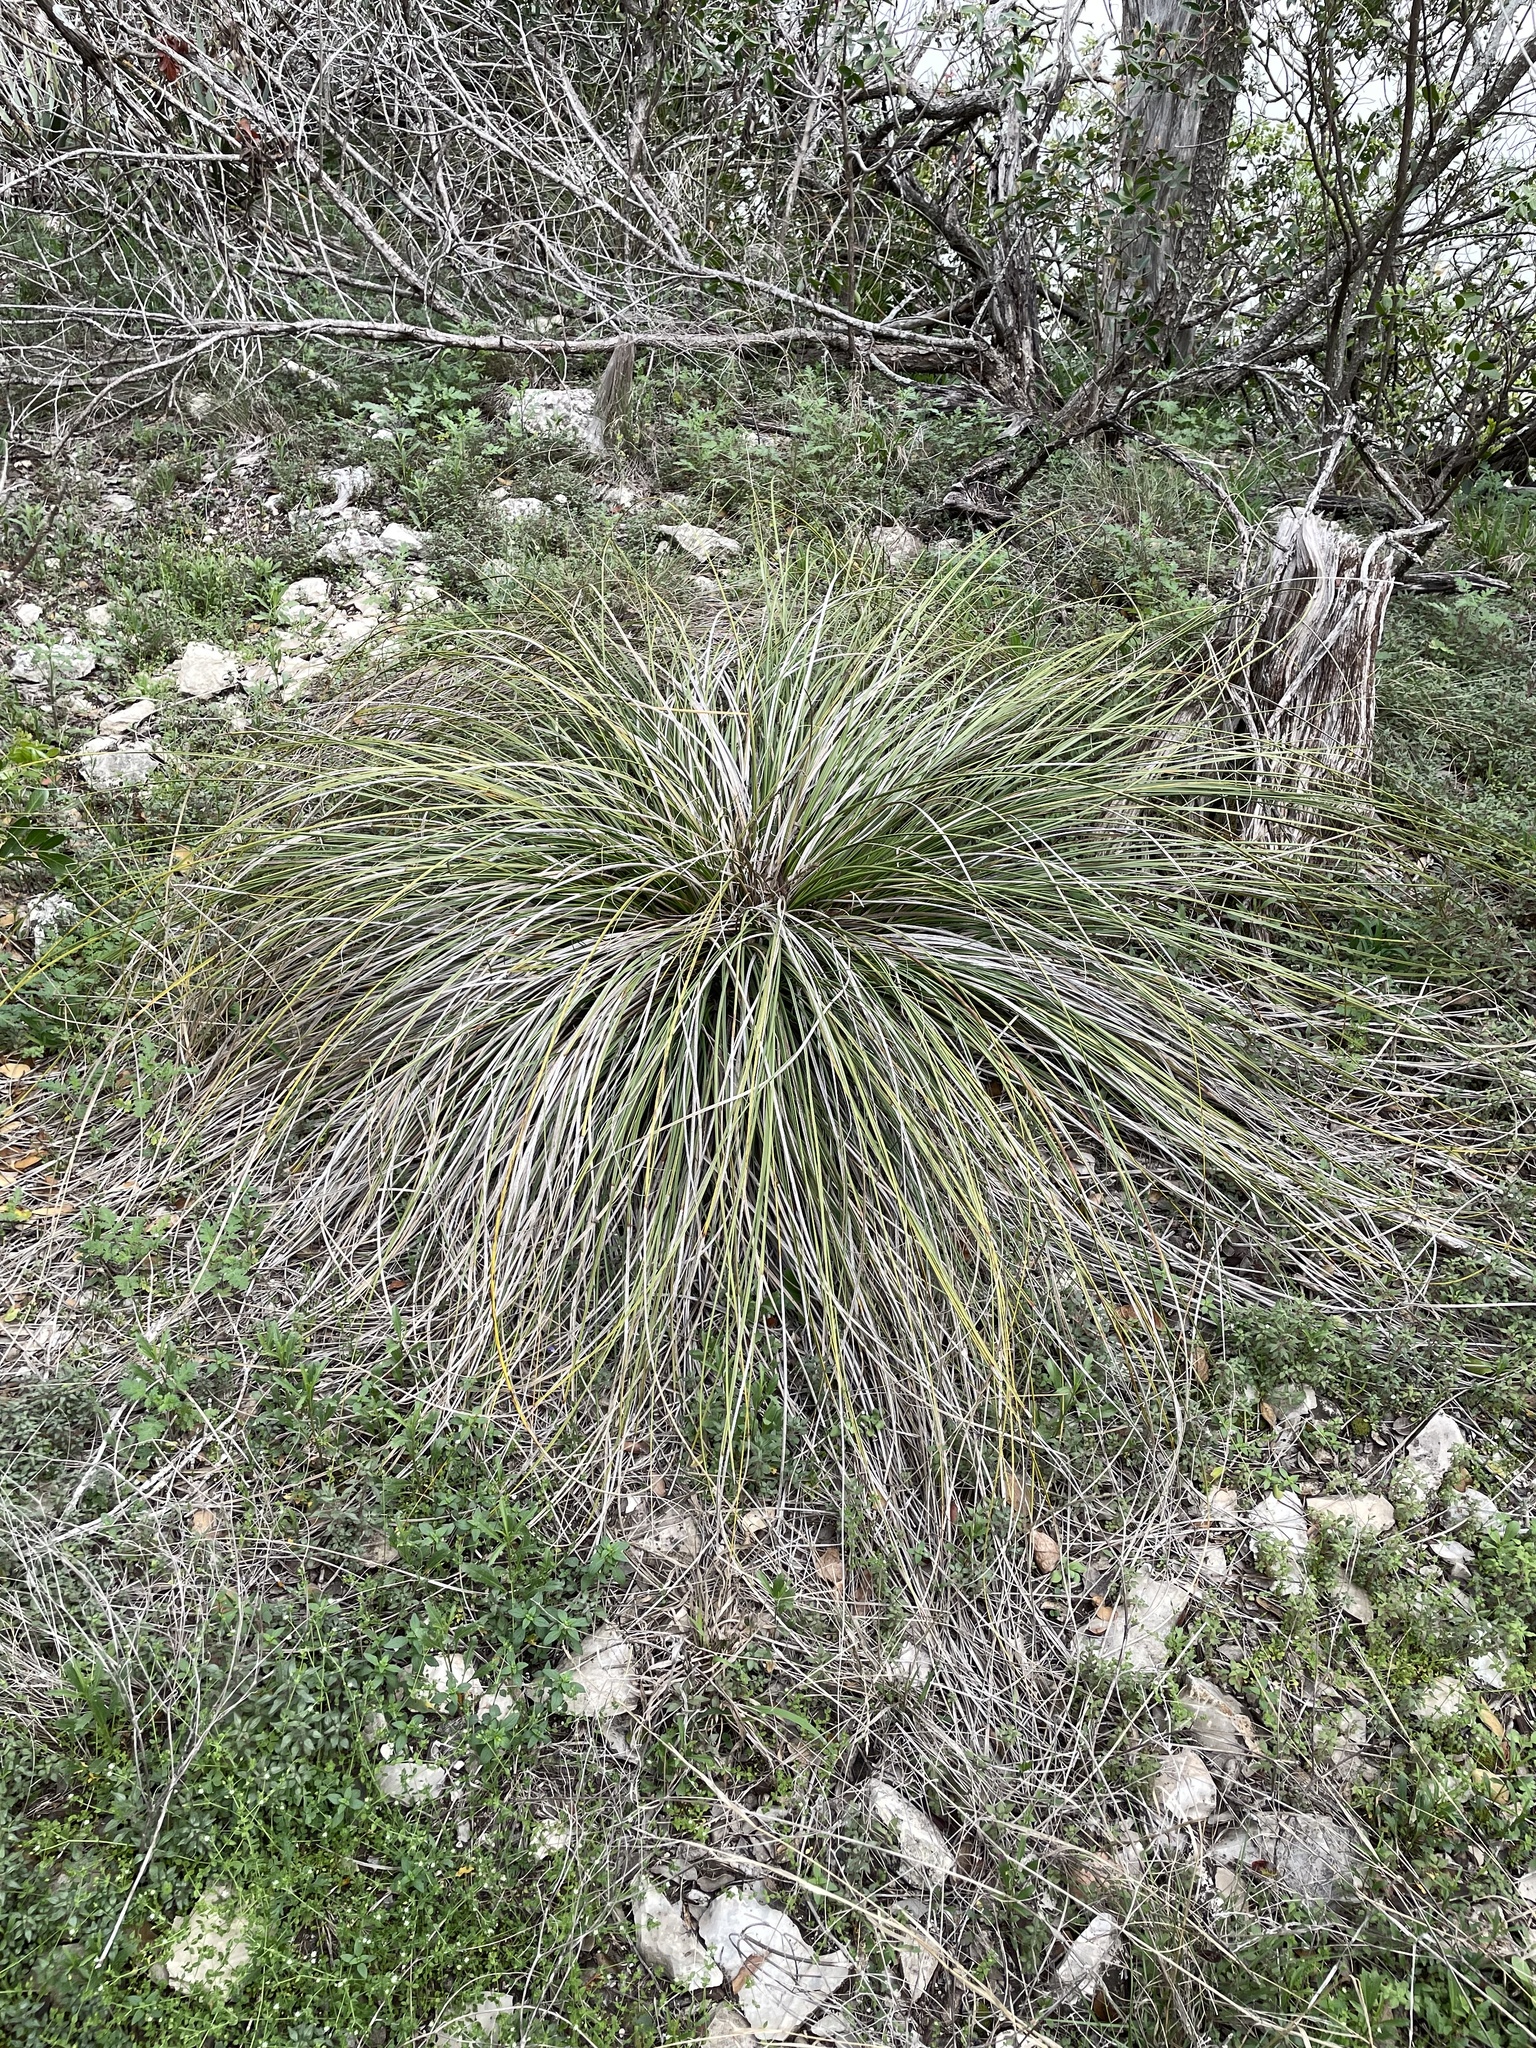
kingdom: Plantae
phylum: Tracheophyta
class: Liliopsida
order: Asparagales
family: Asparagaceae
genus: Nolina
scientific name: Nolina texana
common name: Texas sacahuiste
